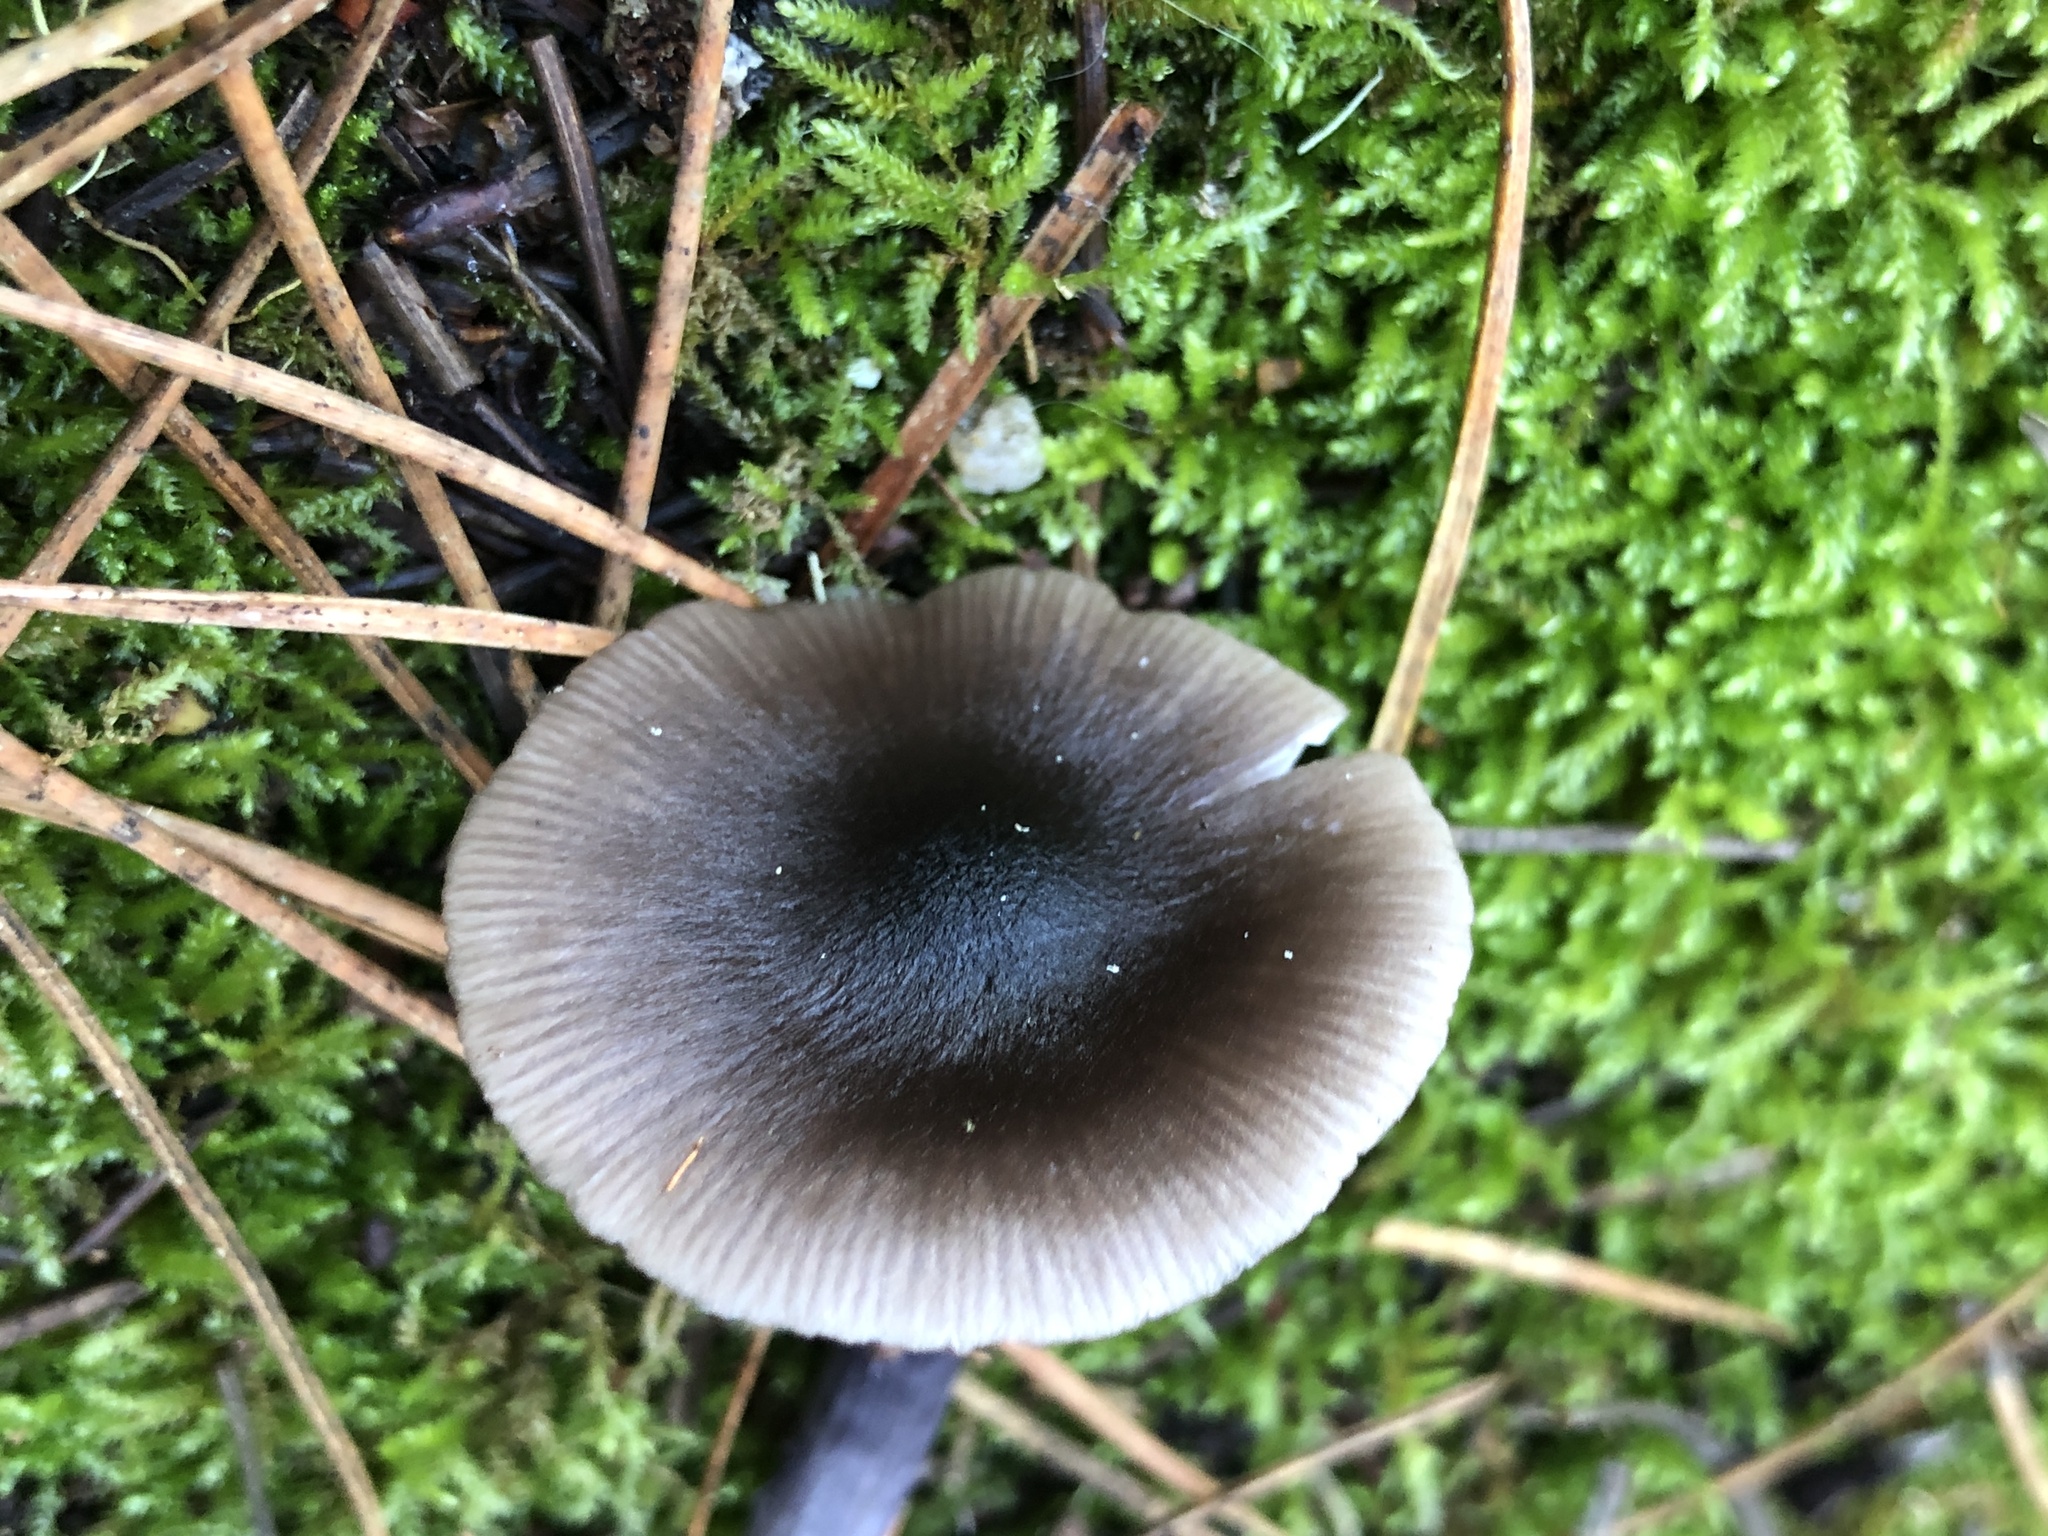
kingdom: Fungi
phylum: Basidiomycota
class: Agaricomycetes
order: Agaricales
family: Entolomataceae
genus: Entocybe
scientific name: Entocybe trachyospora
